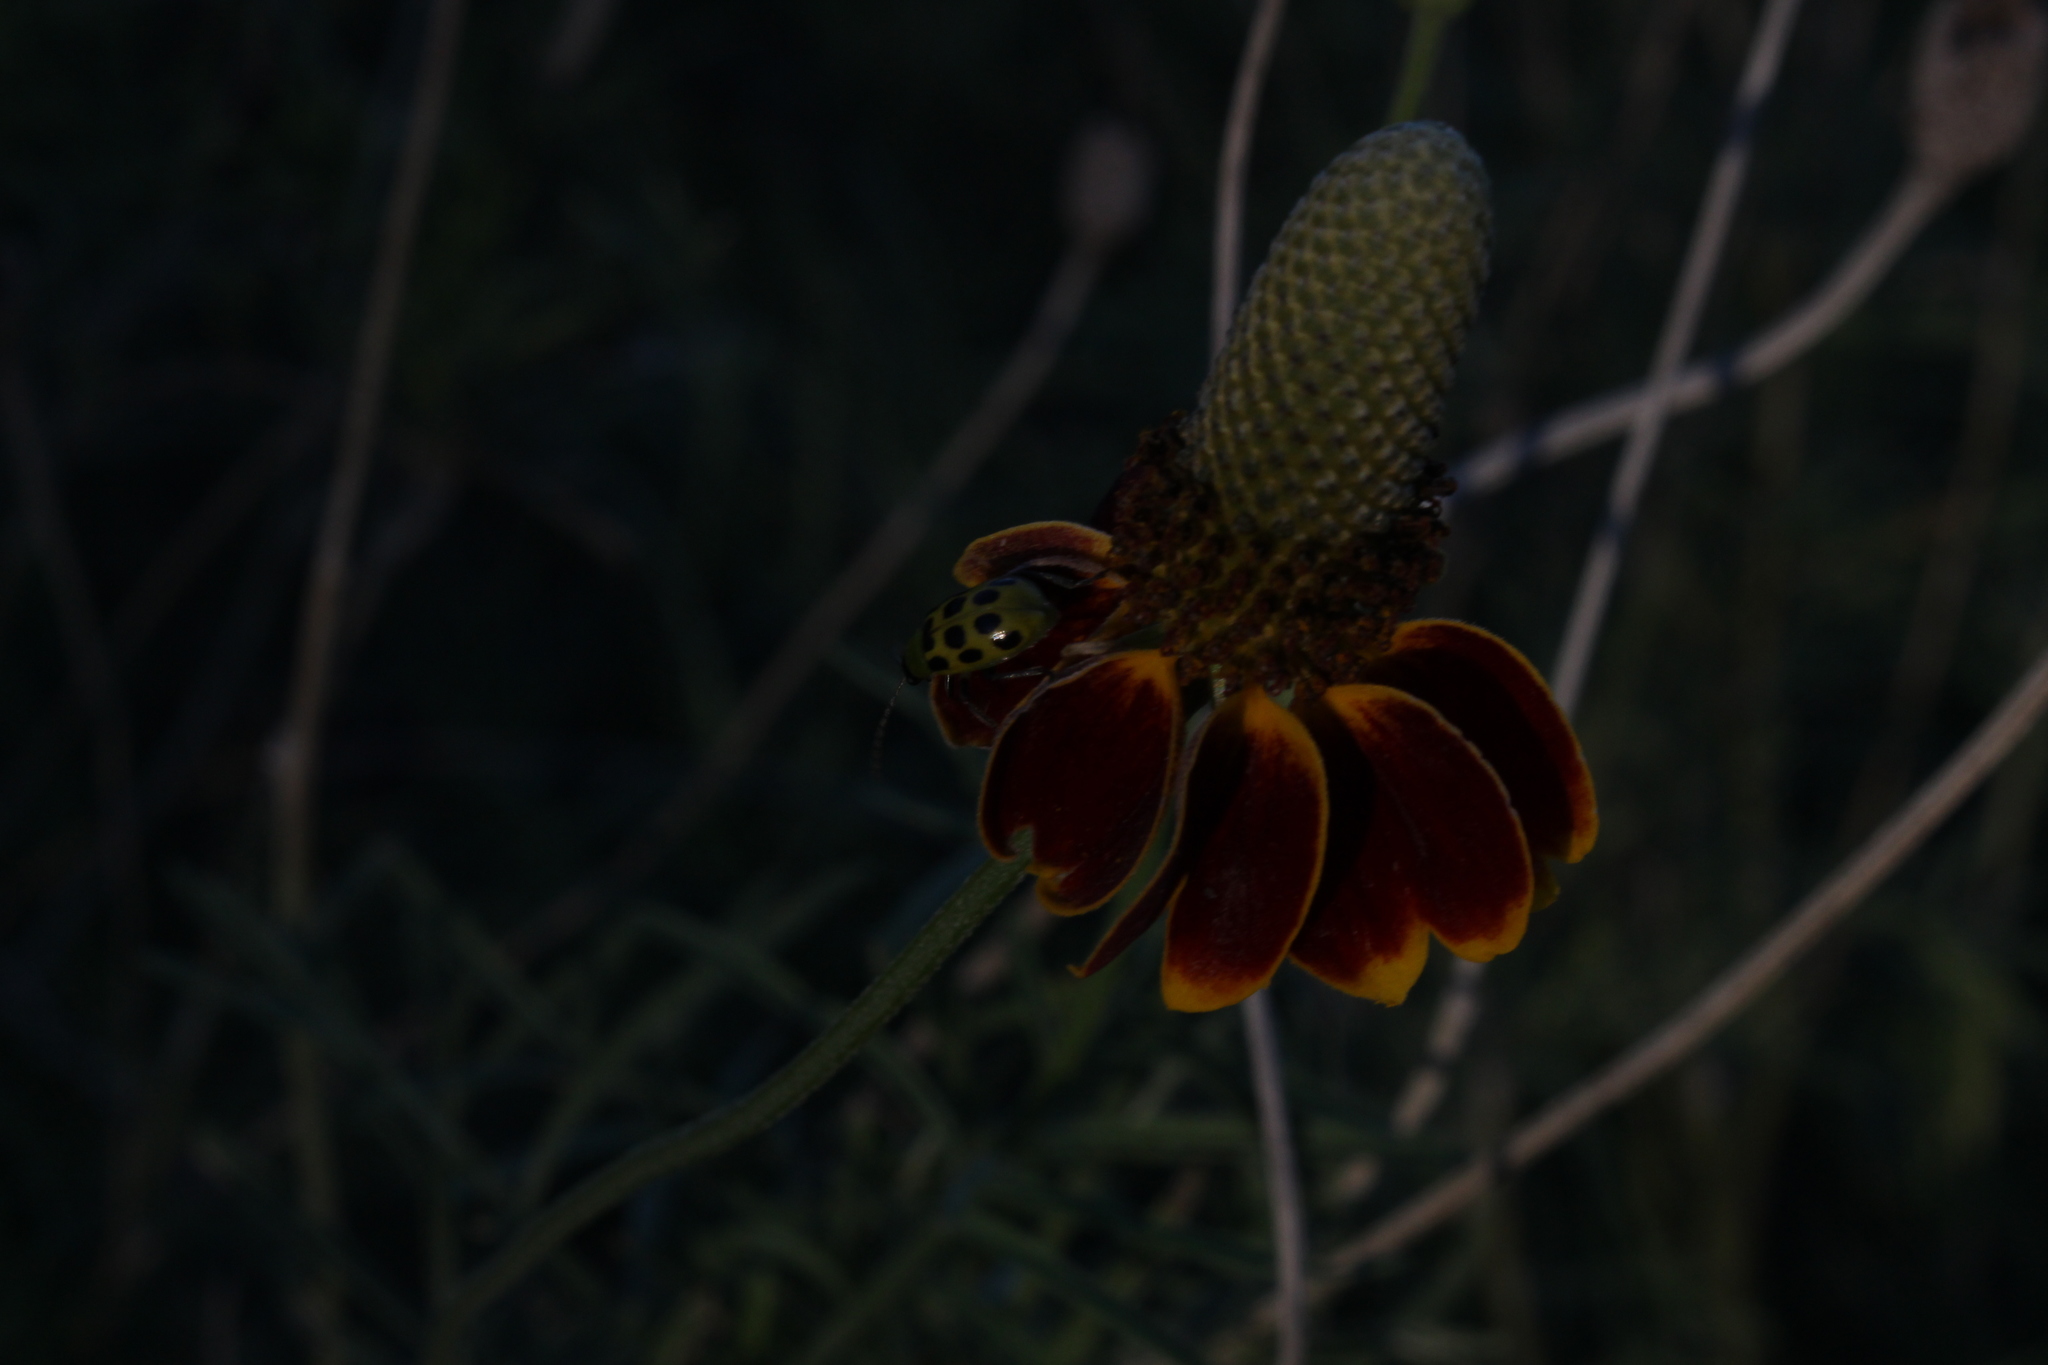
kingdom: Animalia
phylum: Arthropoda
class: Insecta
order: Coleoptera
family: Chrysomelidae
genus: Diabrotica
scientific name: Diabrotica undecimpunctata
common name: Spotted cucumber beetle
